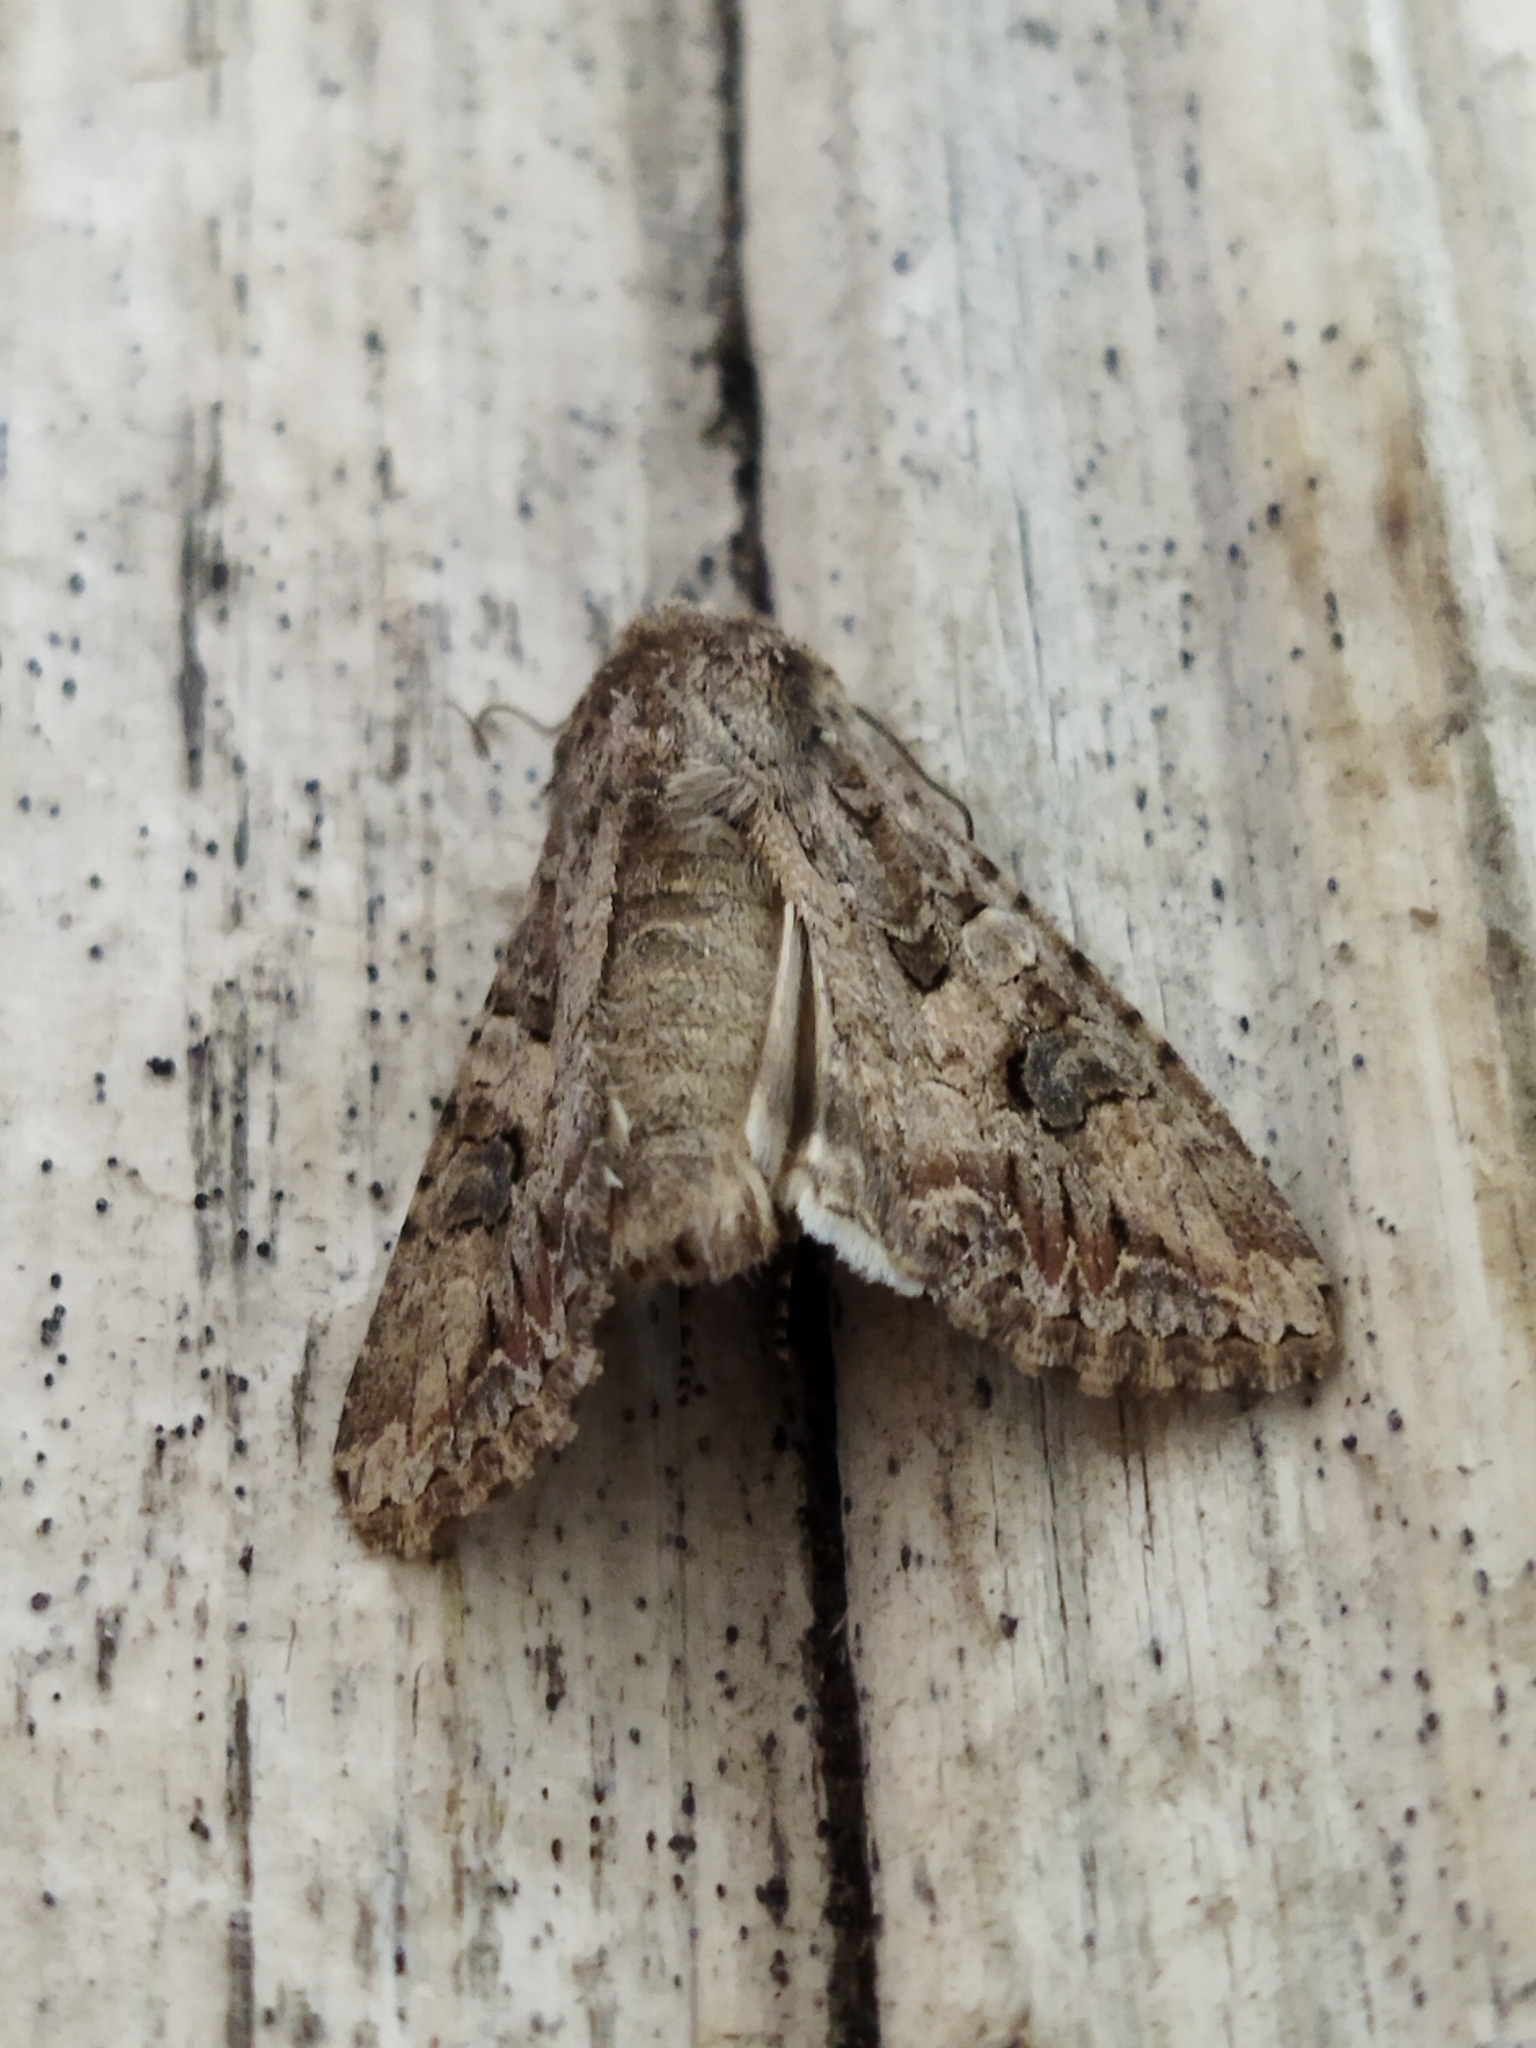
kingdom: Animalia
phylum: Arthropoda
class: Insecta
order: Lepidoptera
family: Noctuidae
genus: Anarta
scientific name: Anarta pugnax
